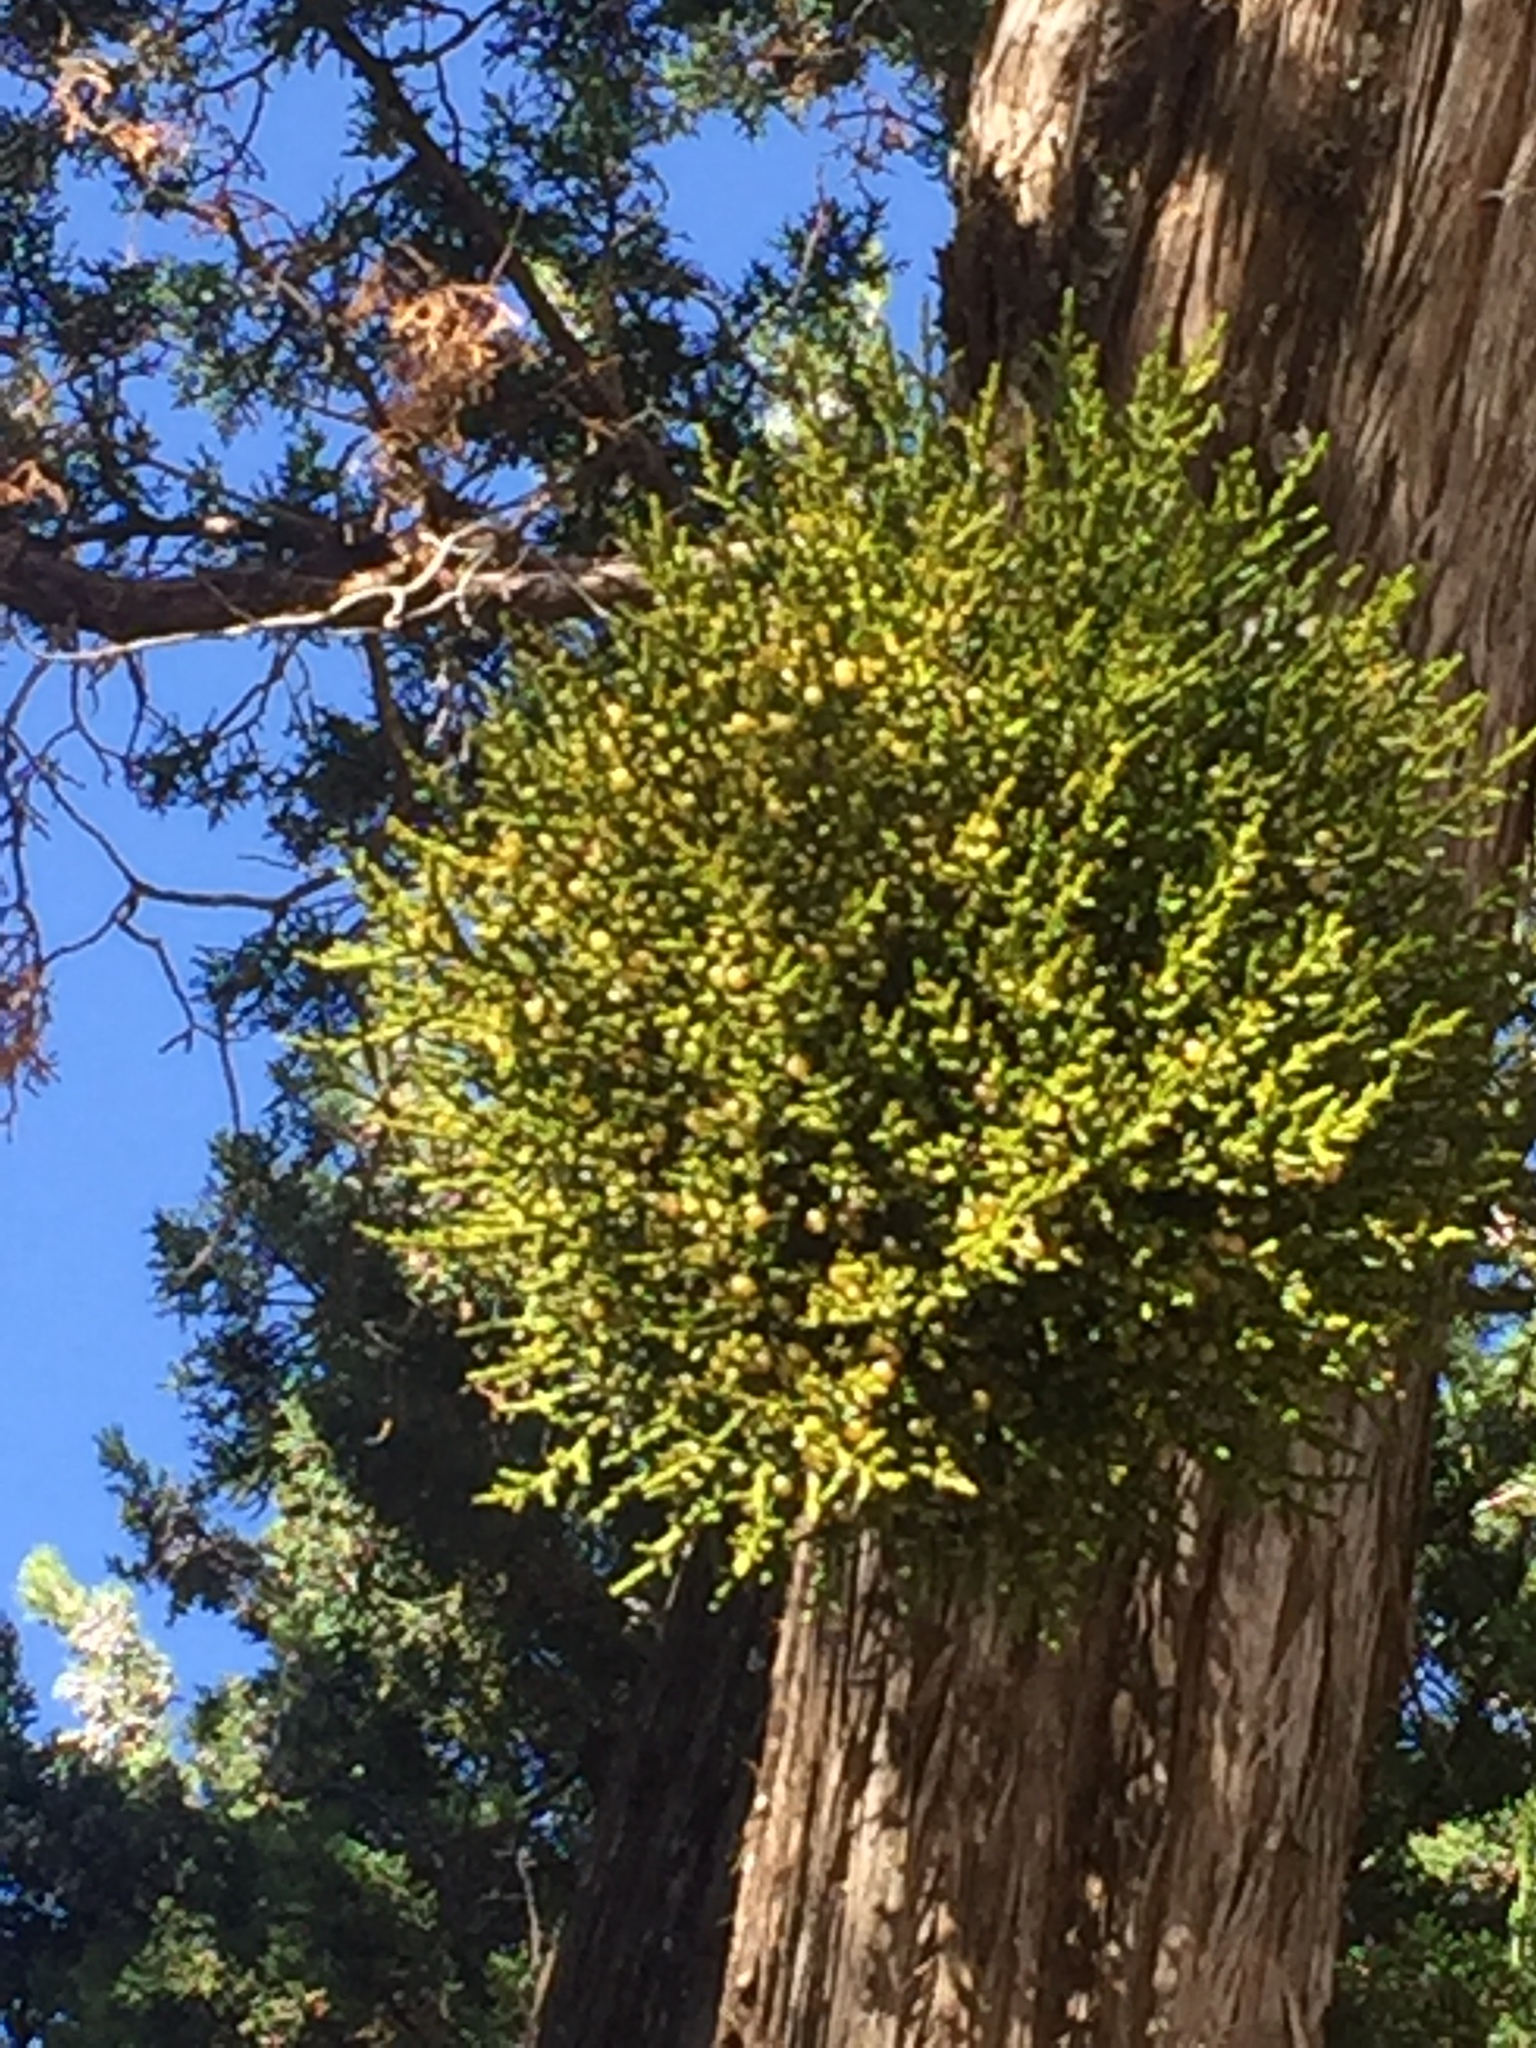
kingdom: Plantae
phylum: Tracheophyta
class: Magnoliopsida
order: Santalales
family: Viscaceae
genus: Phoradendron
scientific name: Phoradendron juniperinum
